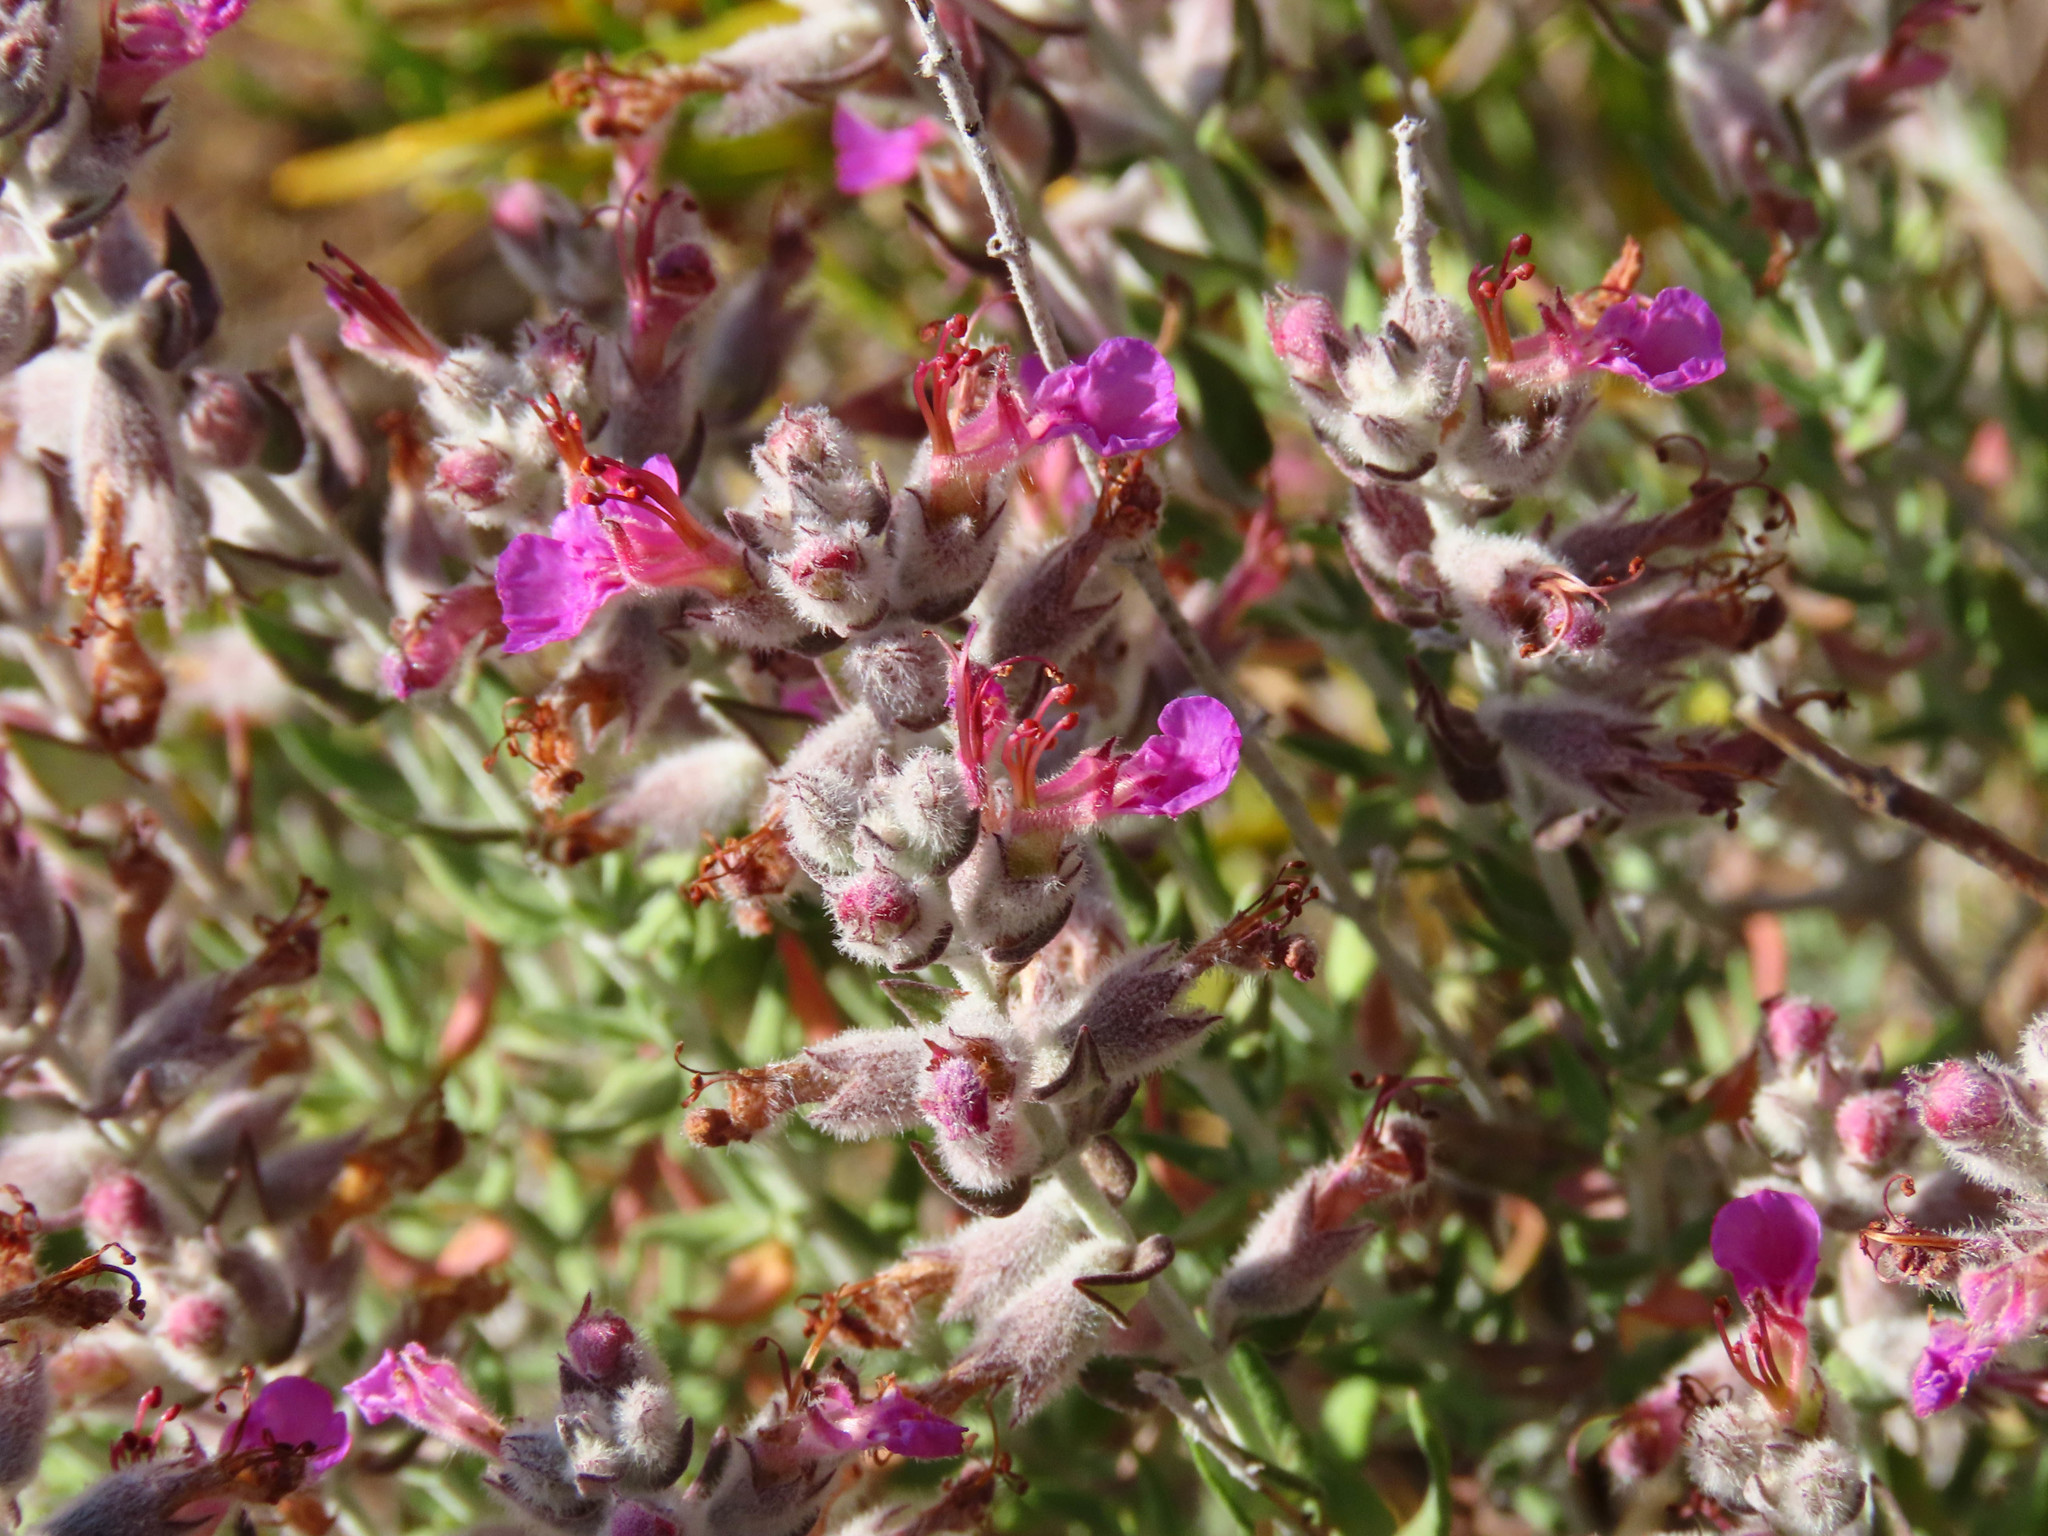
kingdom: Plantae
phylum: Tracheophyta
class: Magnoliopsida
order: Lamiales
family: Lamiaceae
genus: Teucrium
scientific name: Teucrium marum
